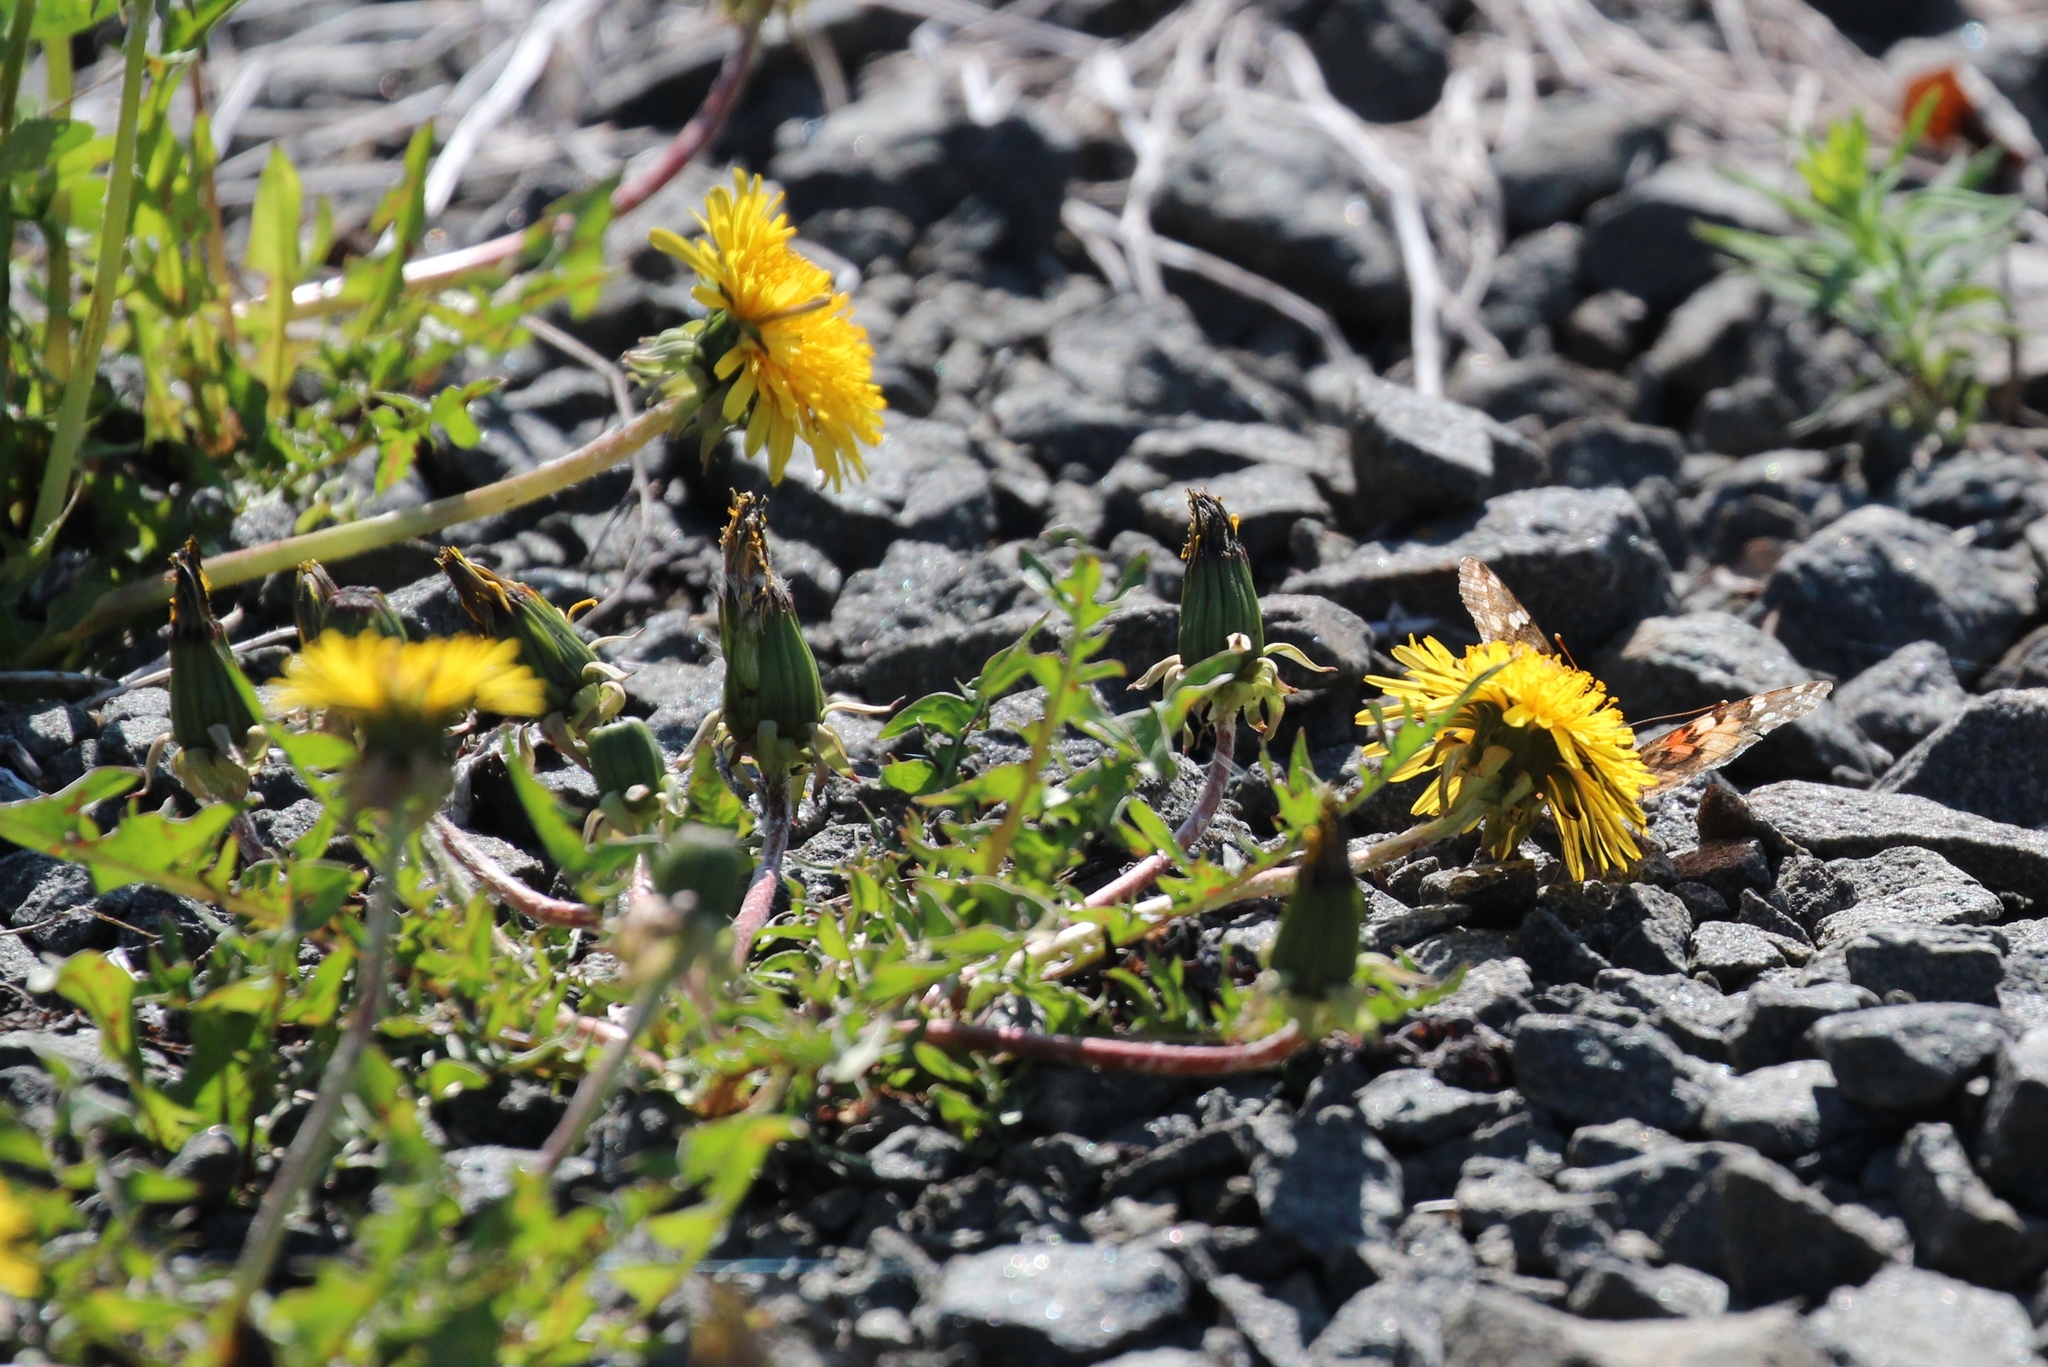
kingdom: Plantae
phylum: Tracheophyta
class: Magnoliopsida
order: Asterales
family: Asteraceae
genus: Taraxacum
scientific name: Taraxacum officinale
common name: Common dandelion
